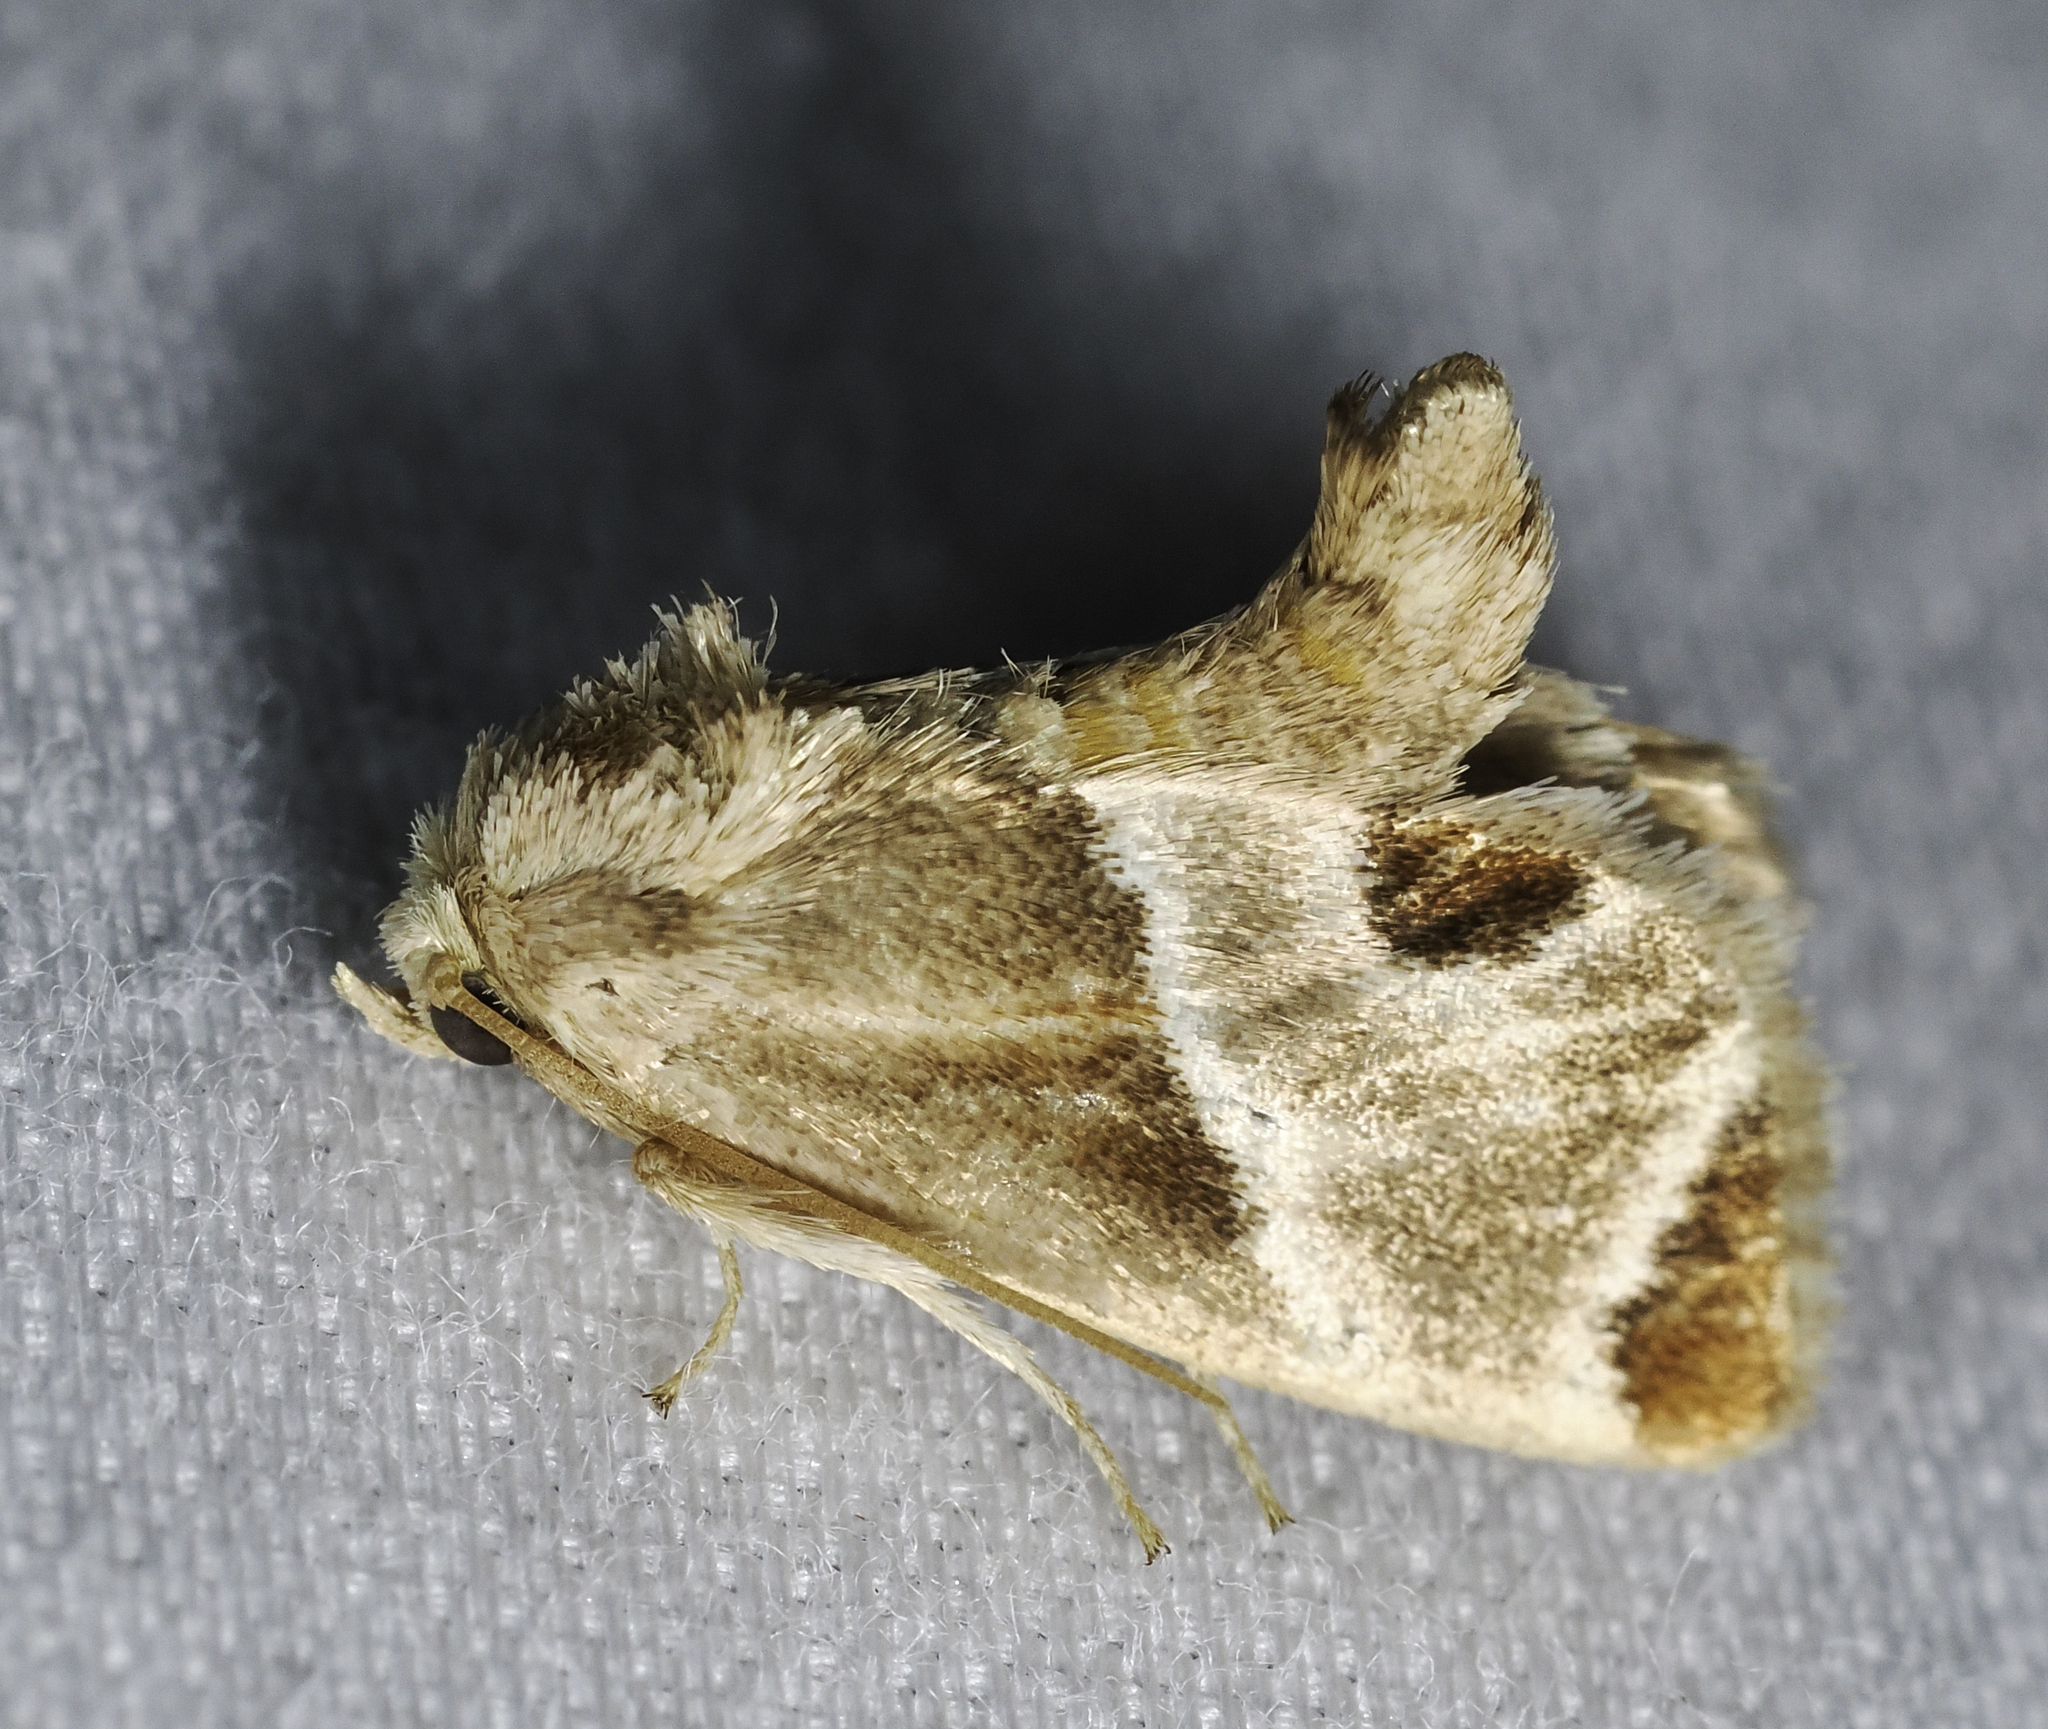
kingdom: Animalia
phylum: Arthropoda
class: Insecta
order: Lepidoptera
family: Limacodidae
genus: Apoda
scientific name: Apoda biguttata
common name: Shagreened slug moth
